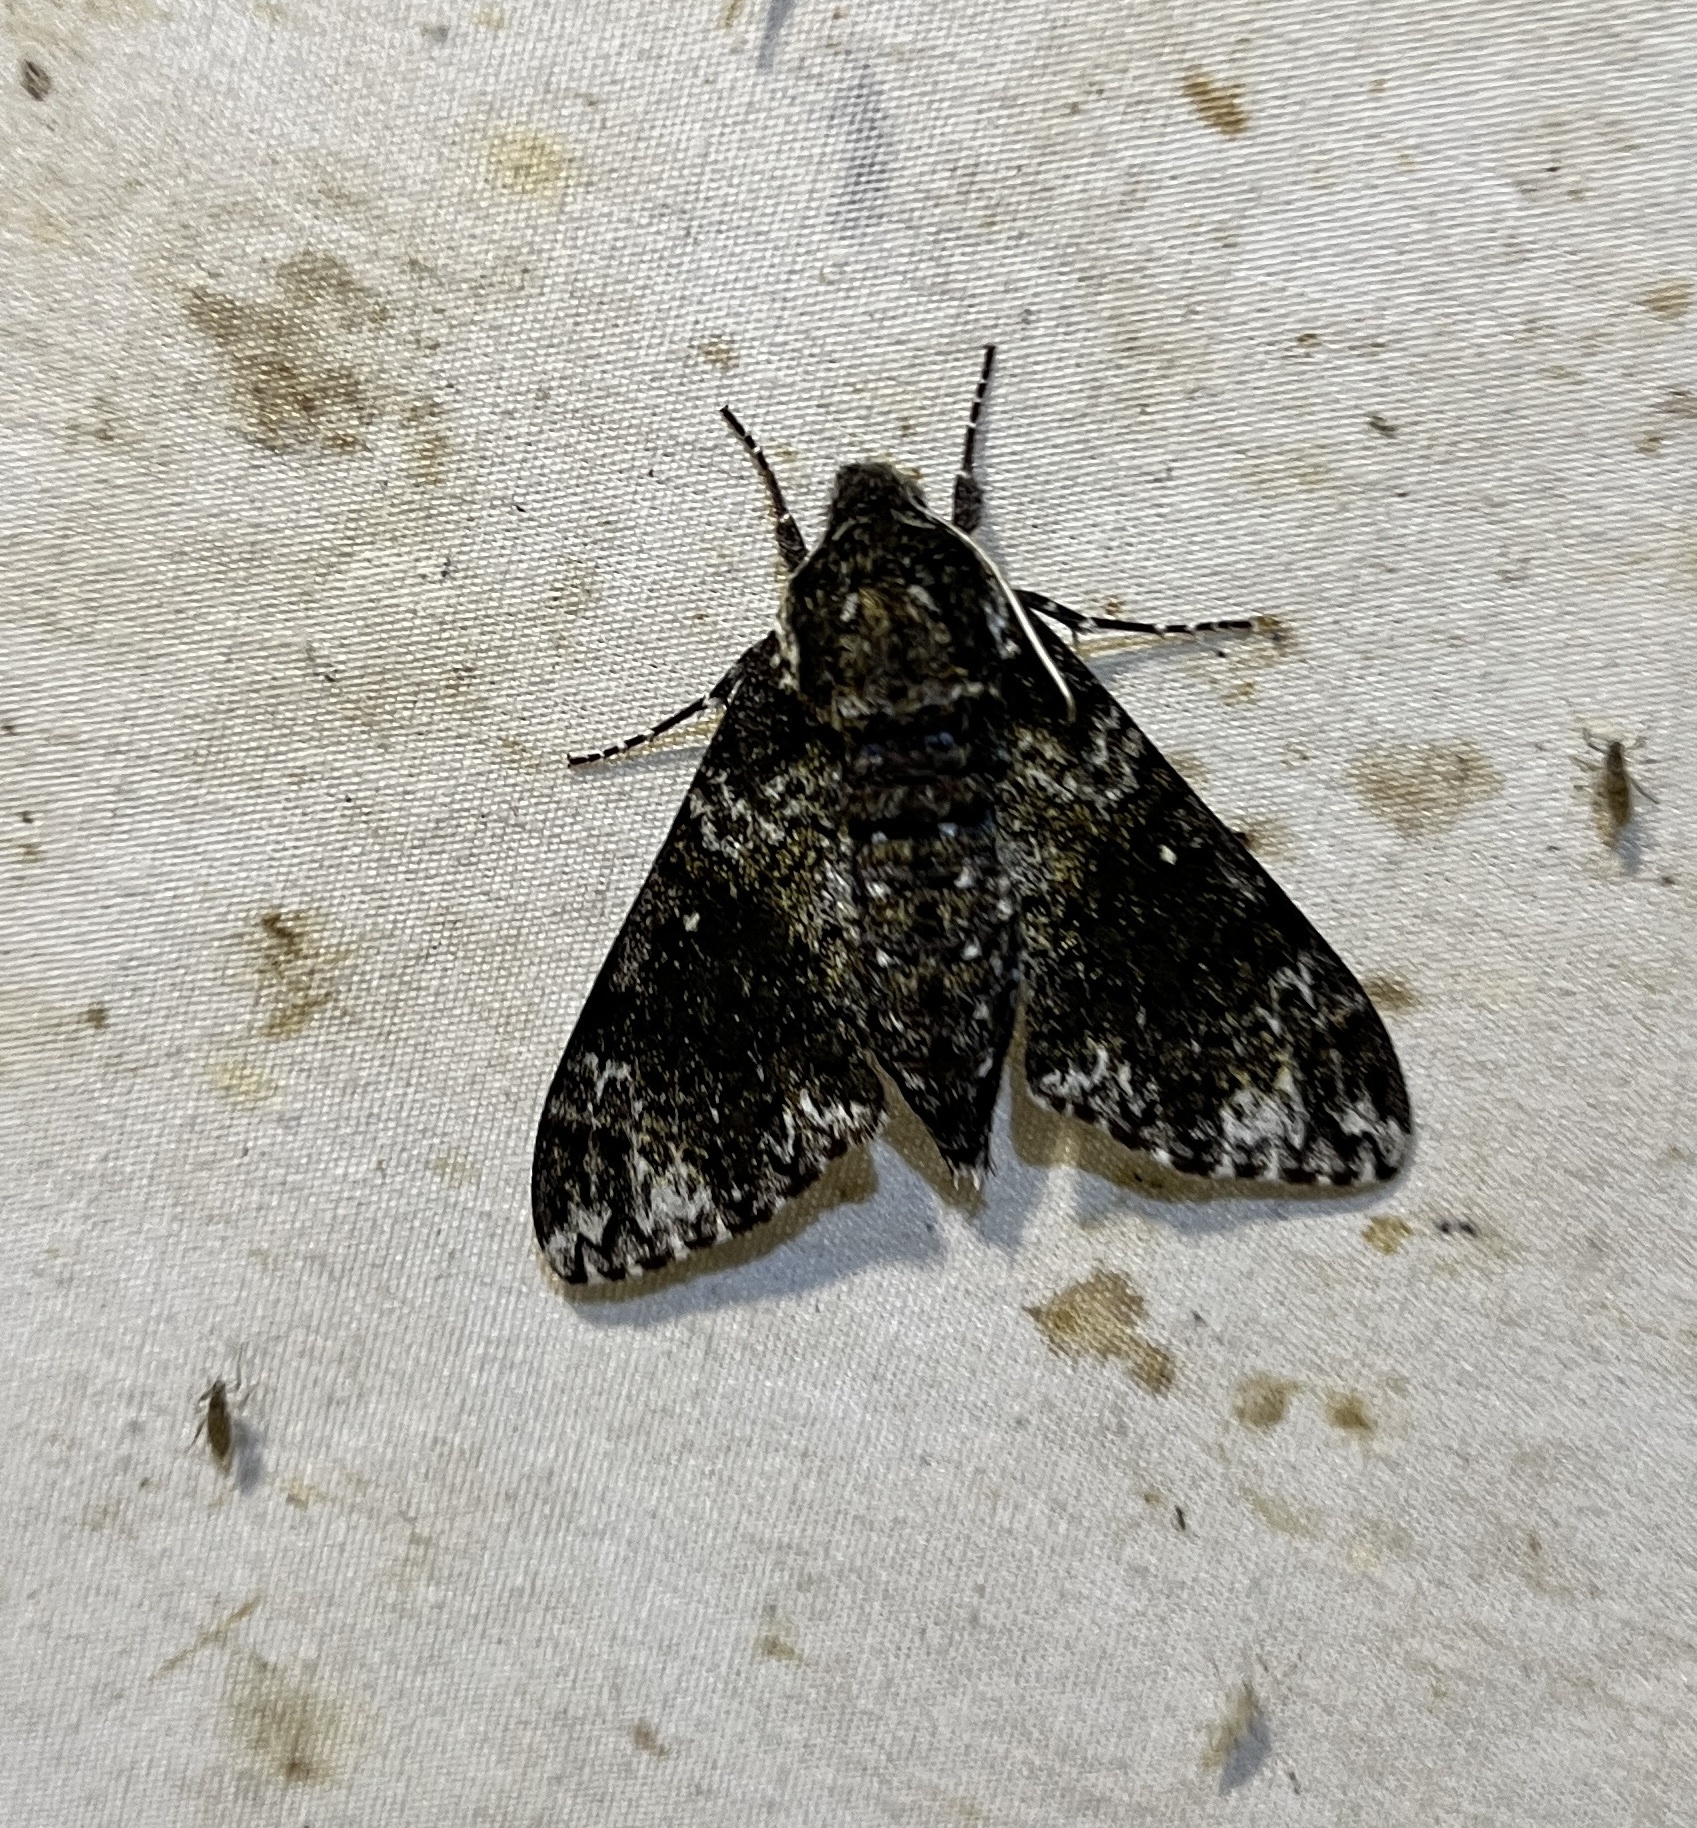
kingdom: Animalia
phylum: Arthropoda
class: Insecta
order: Lepidoptera
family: Sphingidae
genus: Dolba
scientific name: Dolba hyloeus
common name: Pawpaw sphinx
